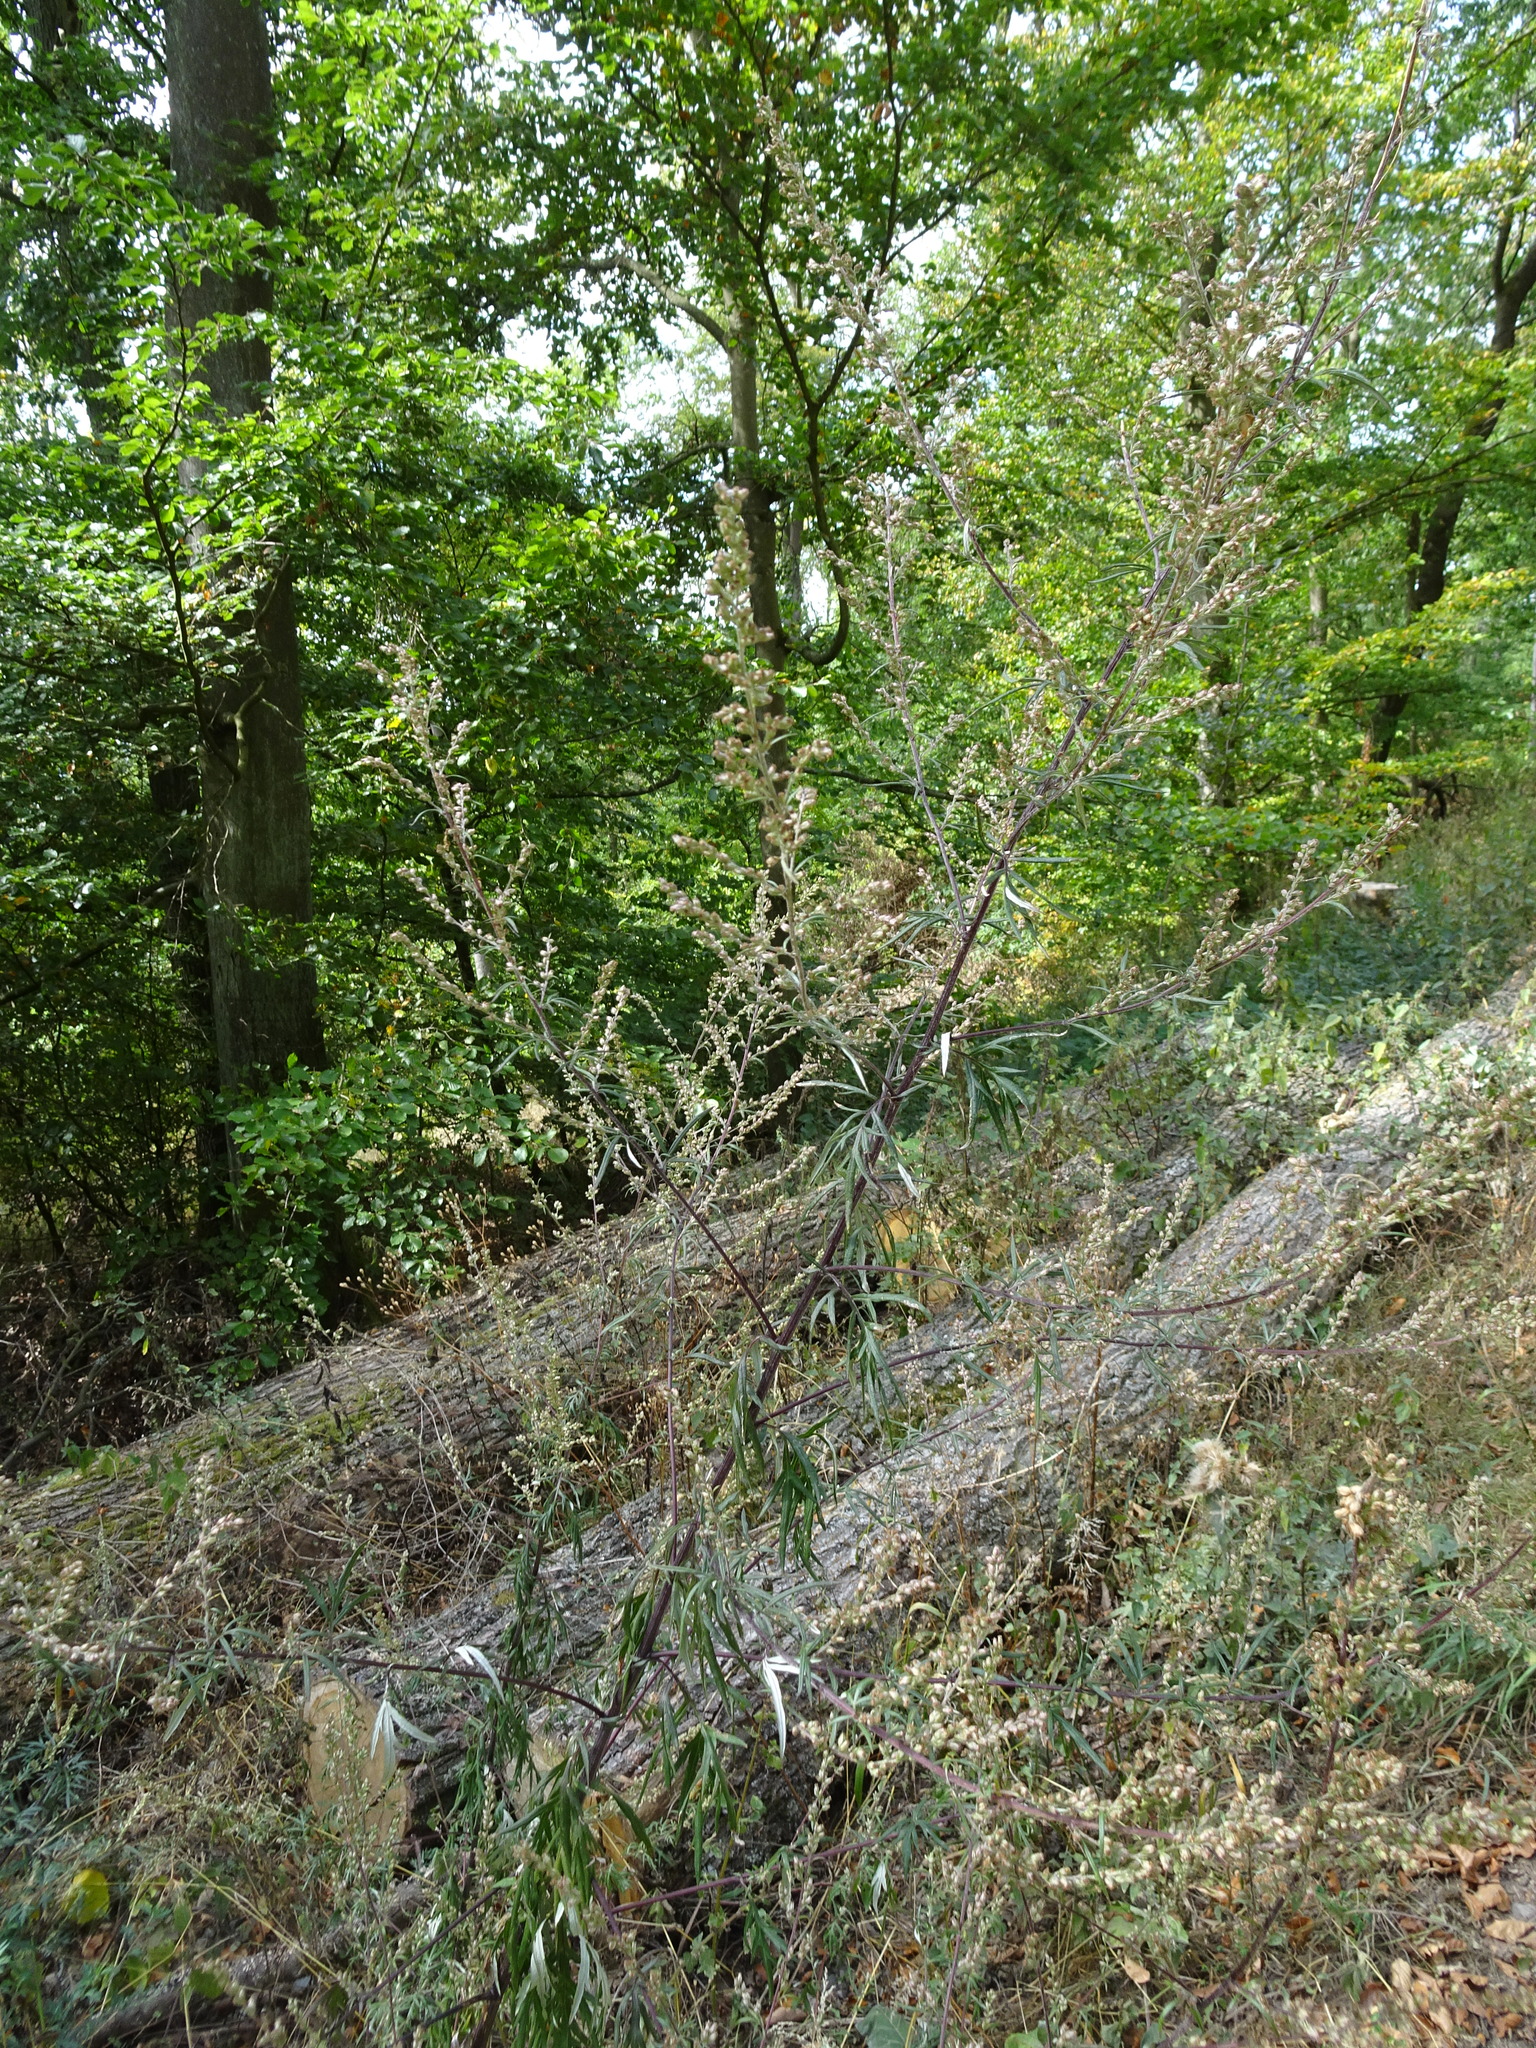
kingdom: Plantae
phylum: Tracheophyta
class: Magnoliopsida
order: Asterales
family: Asteraceae
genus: Artemisia
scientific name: Artemisia vulgaris
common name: Mugwort
